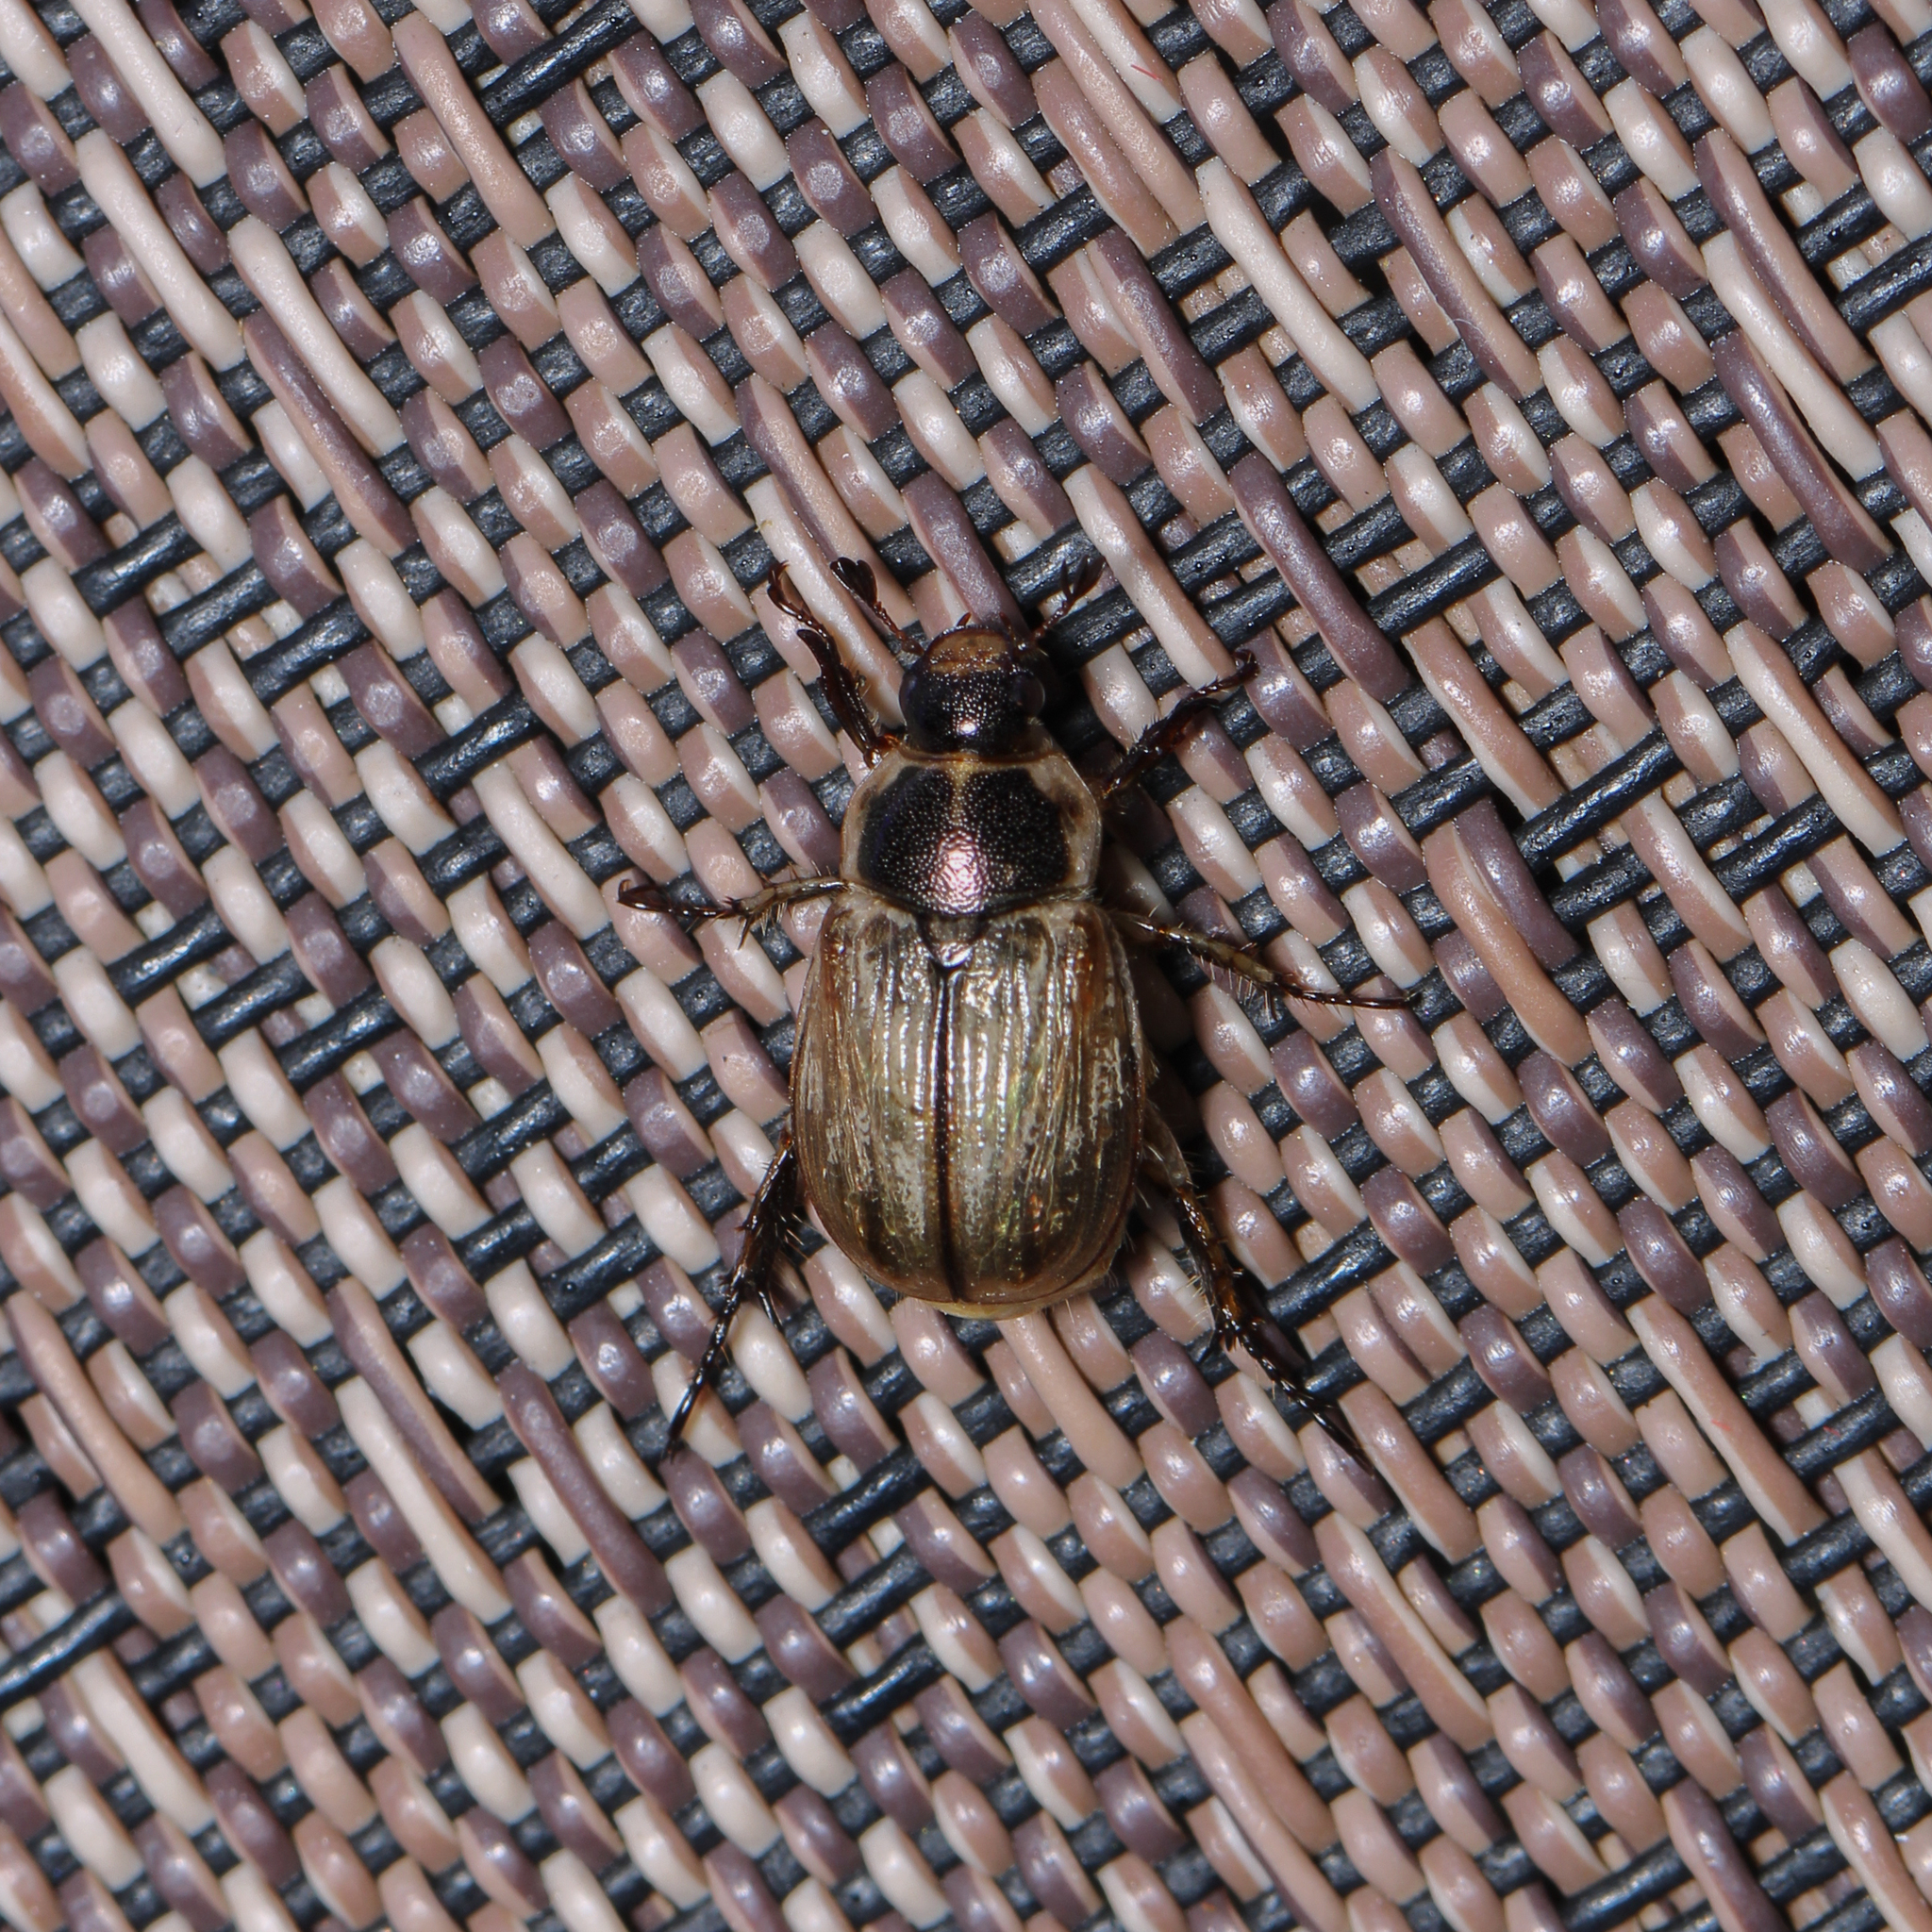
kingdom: Animalia
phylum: Arthropoda
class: Insecta
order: Coleoptera
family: Scarabaeidae
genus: Exomala
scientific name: Exomala orientalis
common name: Oriental beetle
